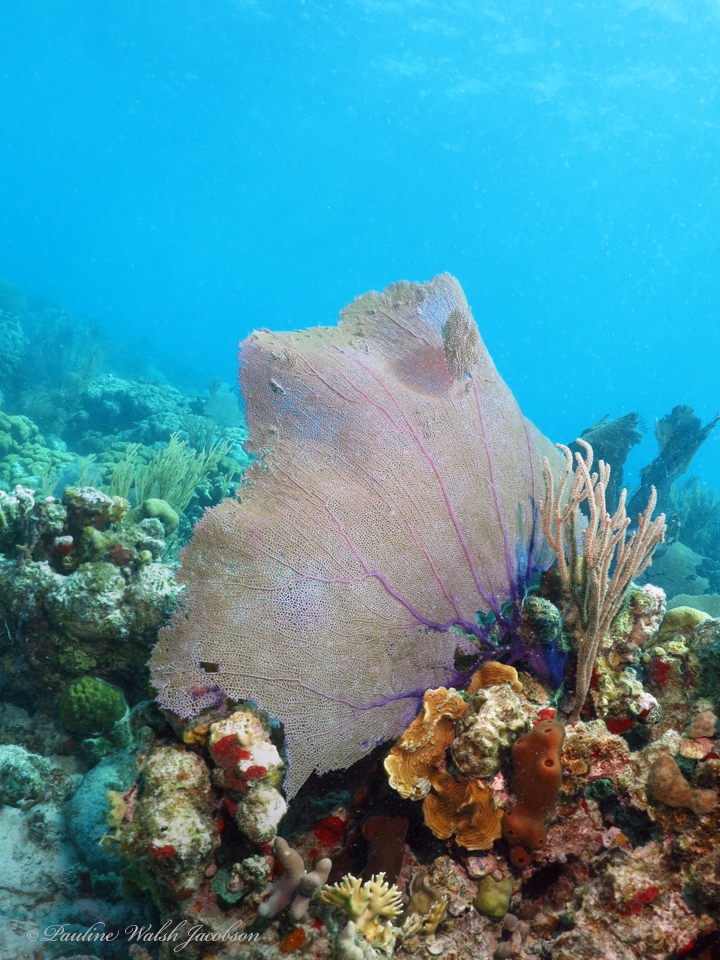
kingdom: Animalia
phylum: Cnidaria
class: Anthozoa
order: Malacalcyonacea
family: Gorgoniidae
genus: Gorgonia
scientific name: Gorgonia ventalina
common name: Common sea fan
